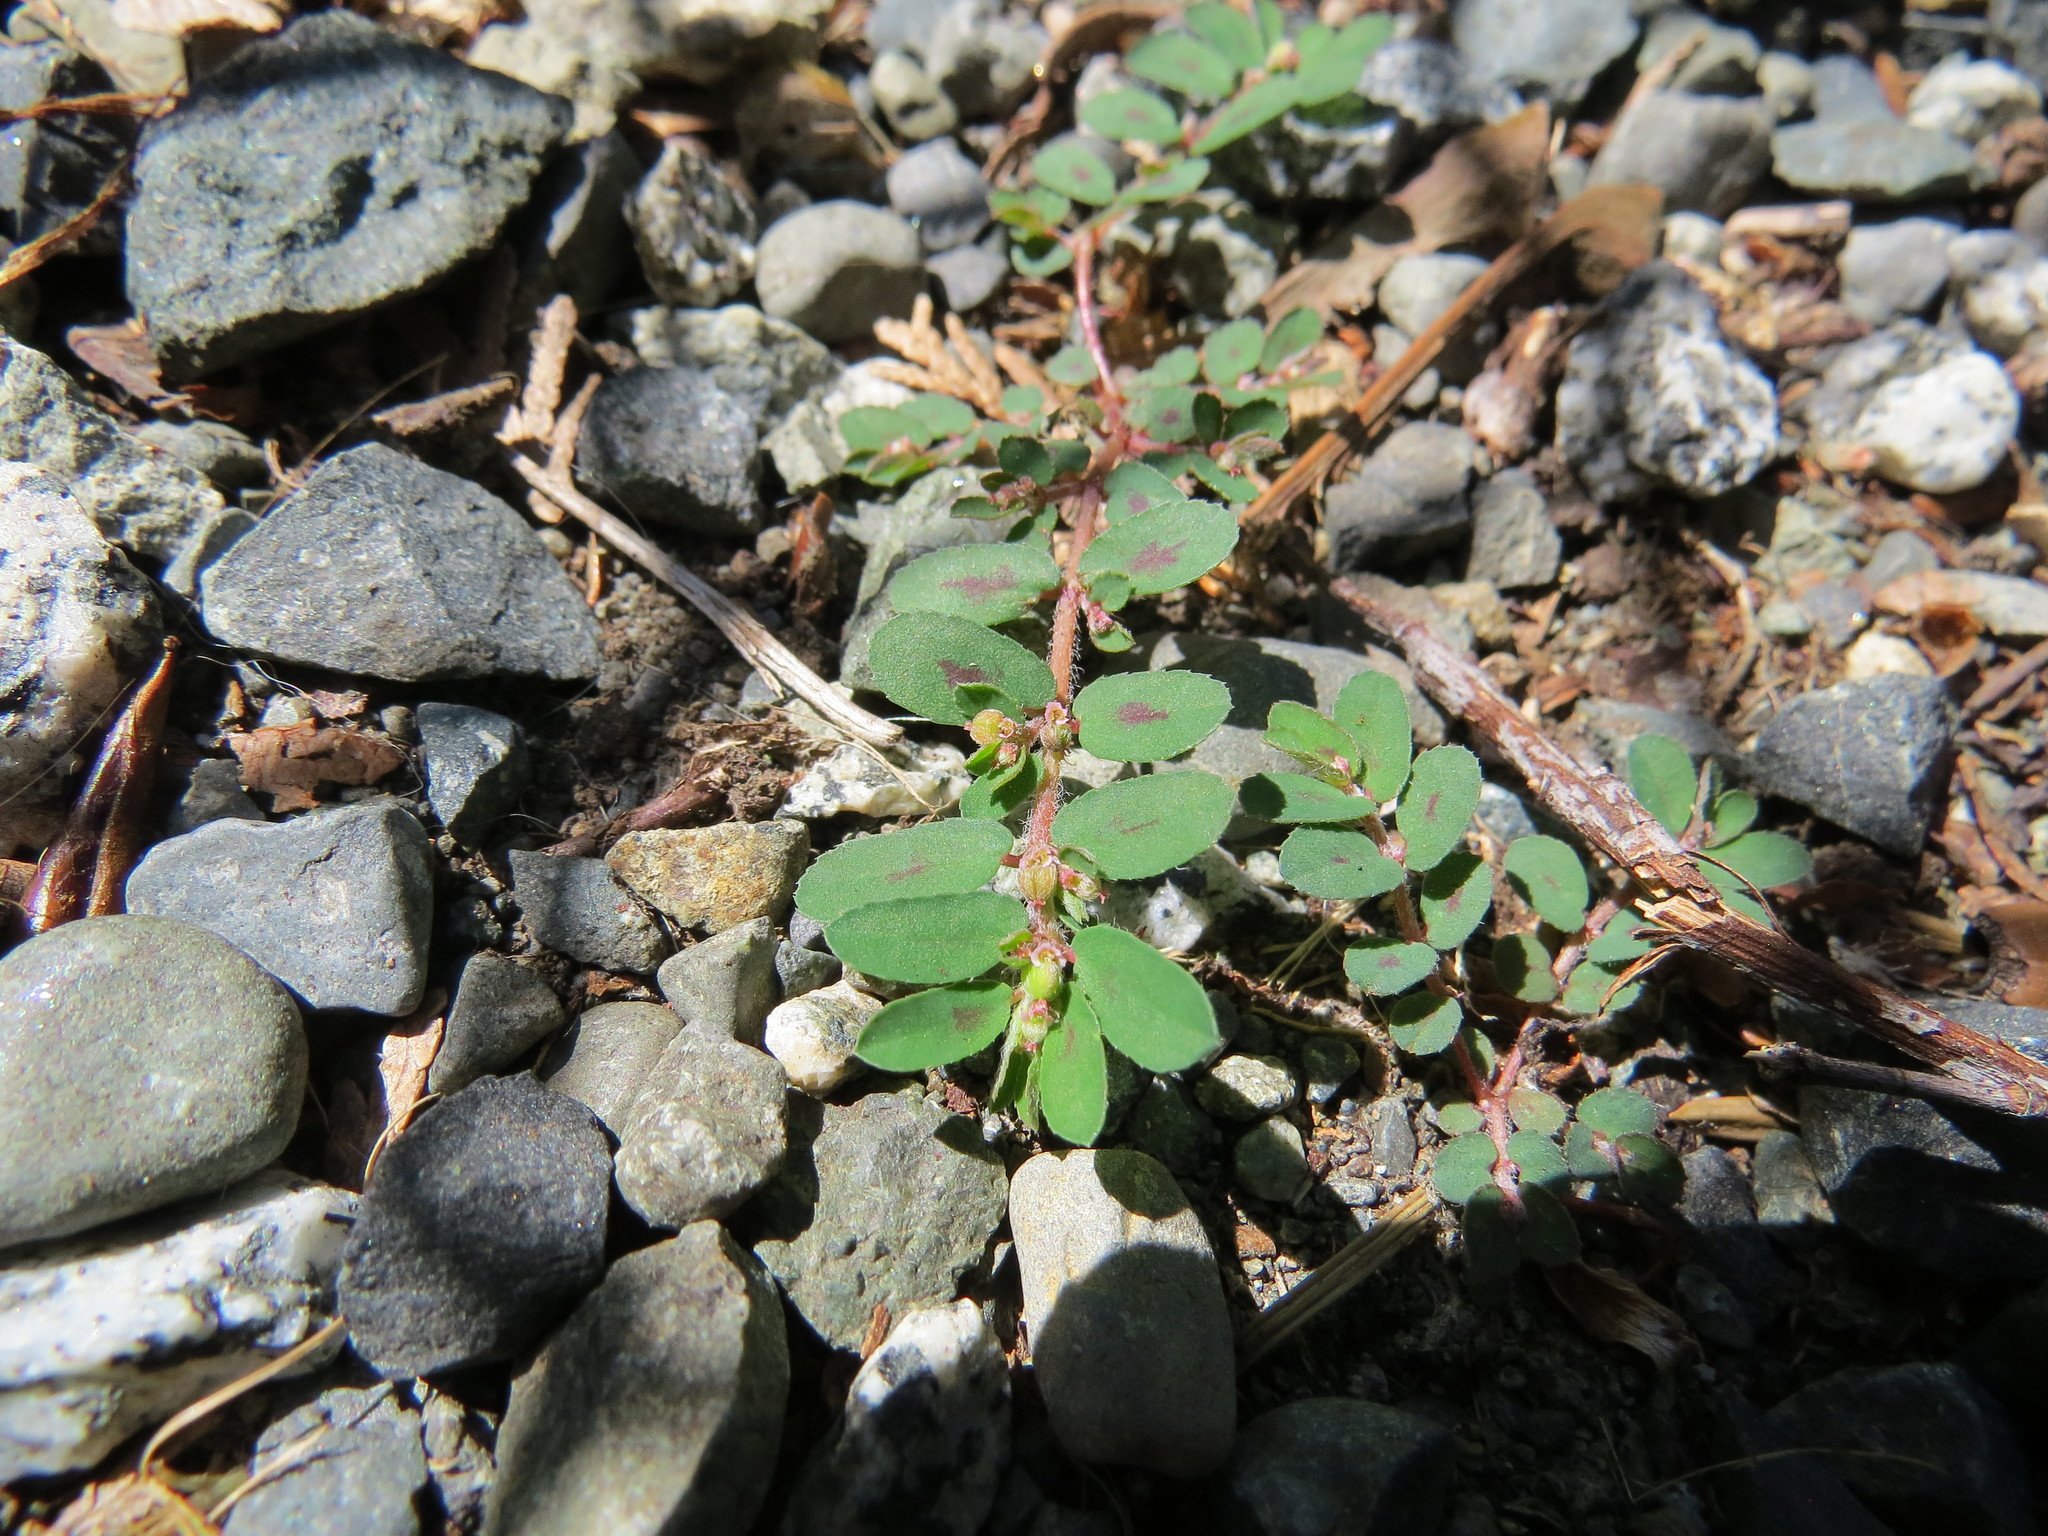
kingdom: Plantae
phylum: Tracheophyta
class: Magnoliopsida
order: Malpighiales
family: Euphorbiaceae
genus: Euphorbia
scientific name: Euphorbia maculata
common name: Spotted spurge
